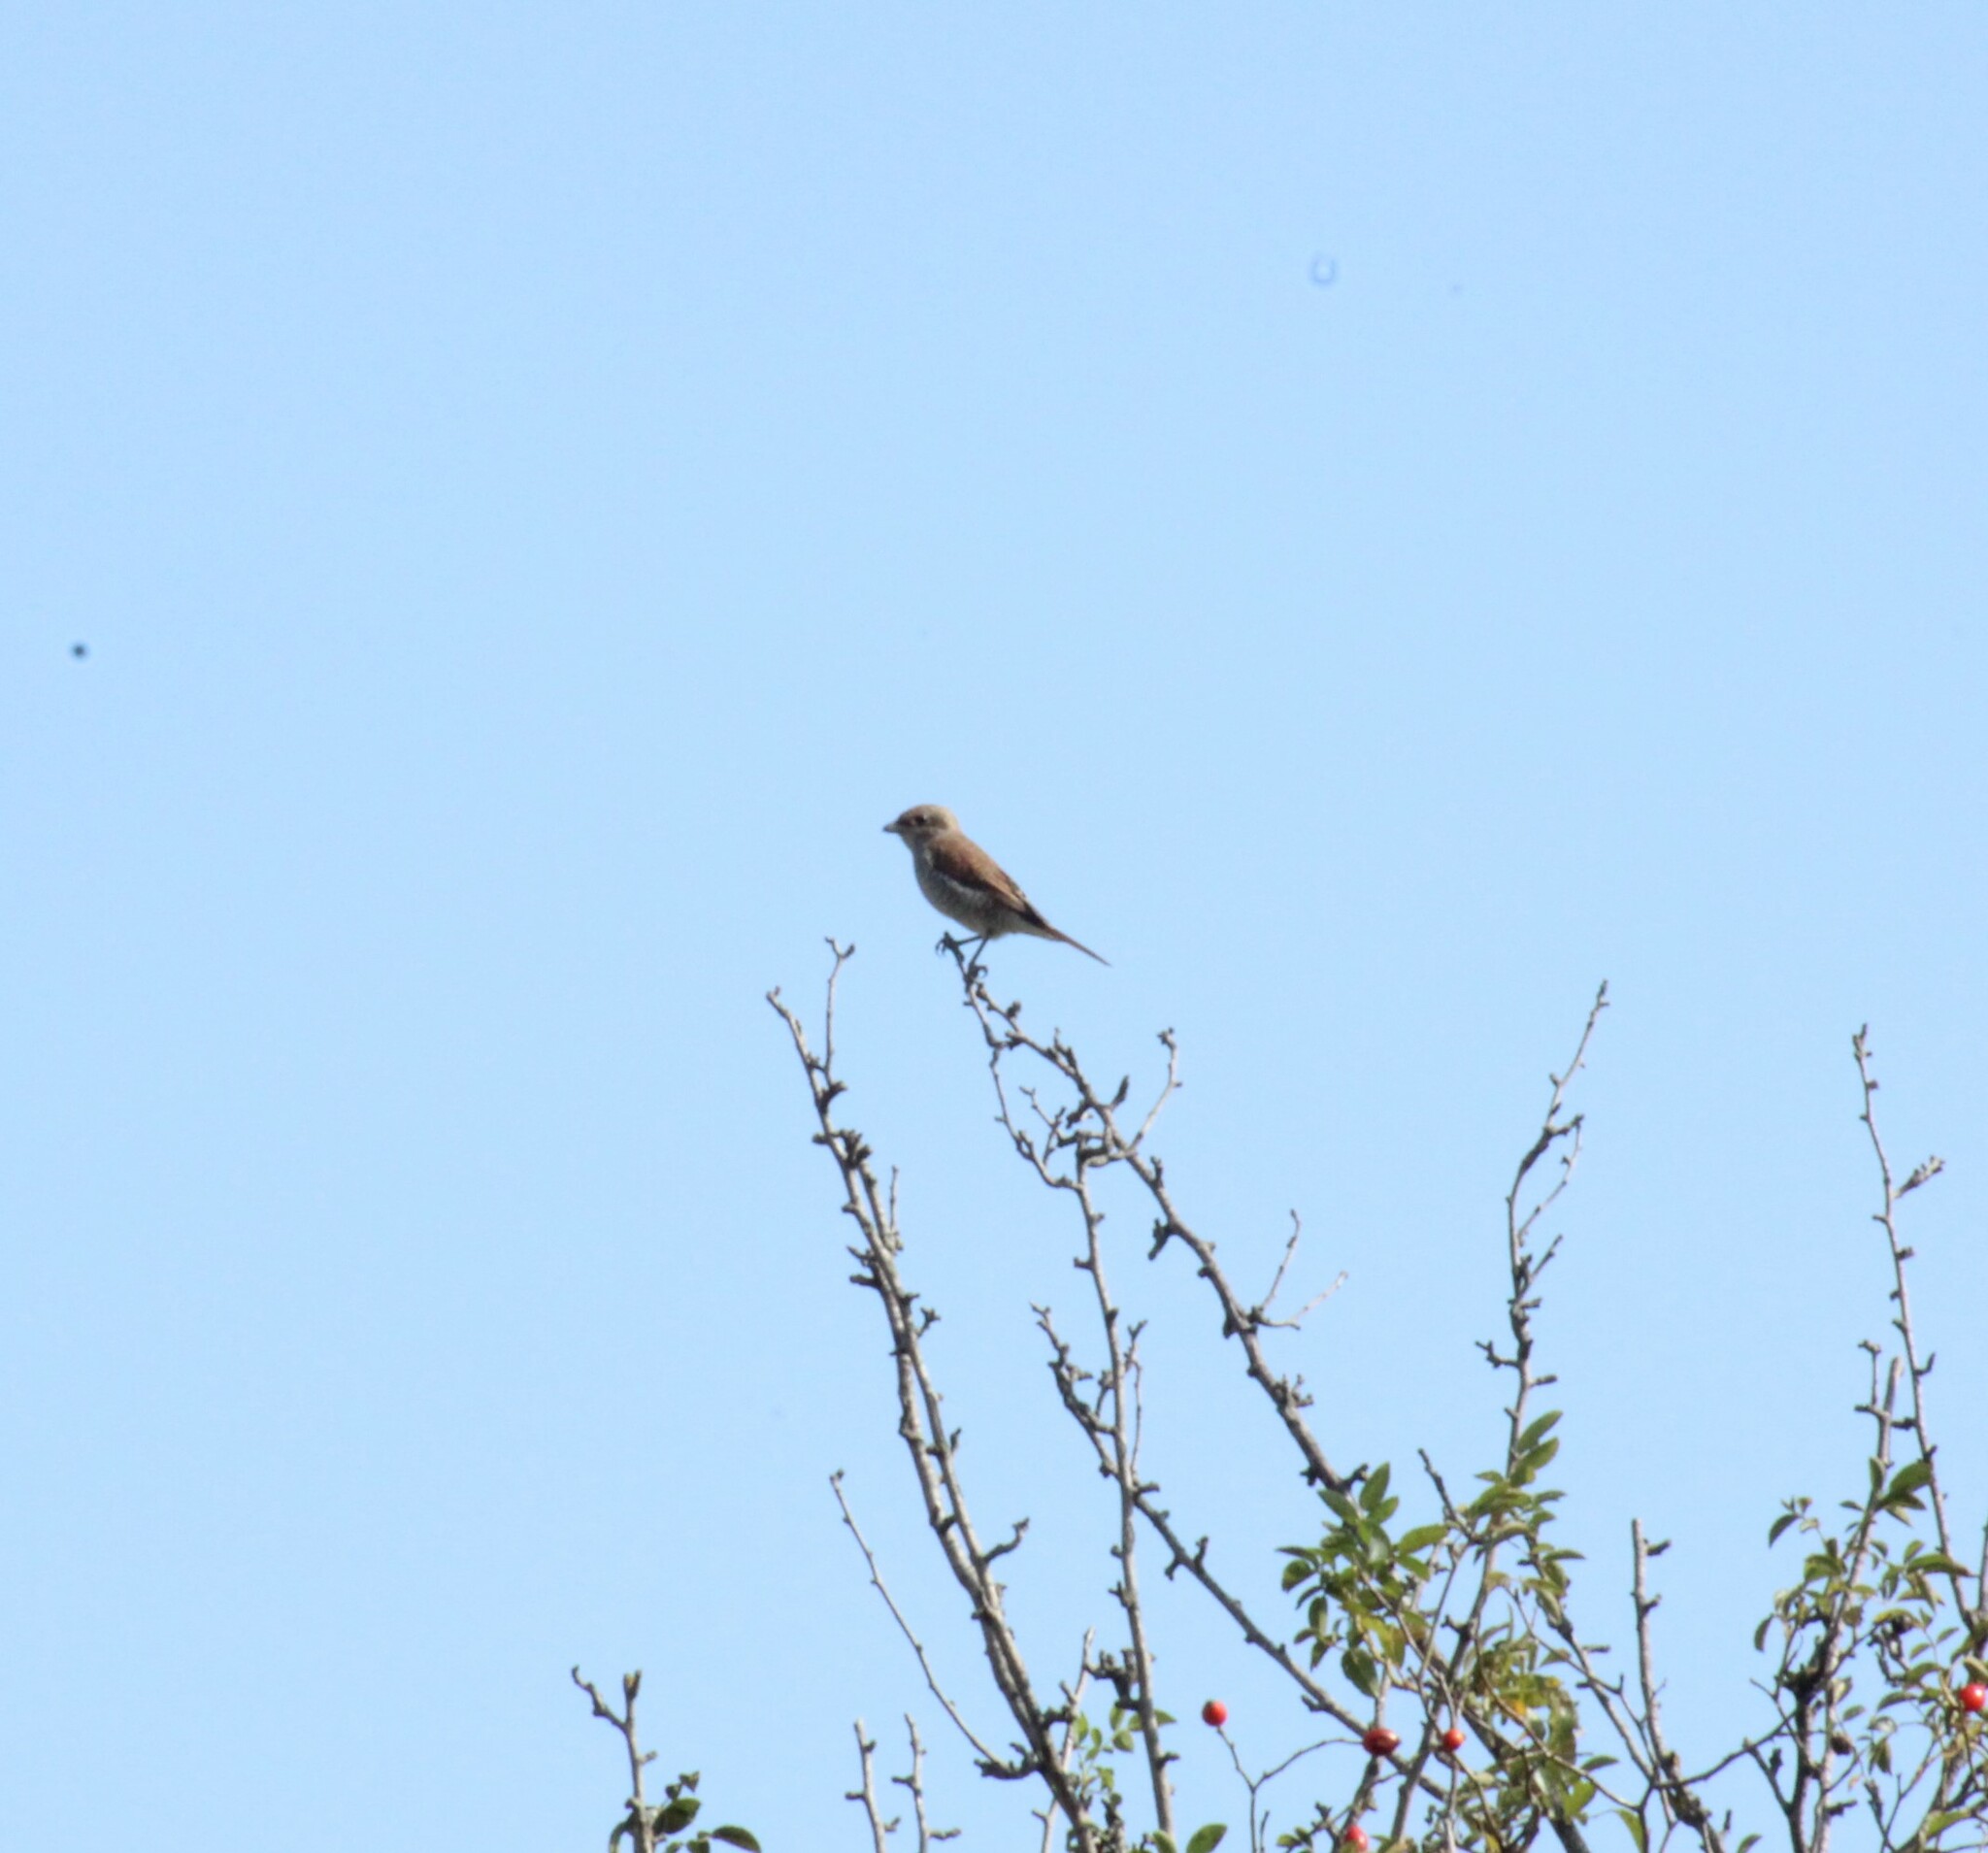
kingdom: Animalia
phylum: Chordata
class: Aves
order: Passeriformes
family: Laniidae
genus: Lanius
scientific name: Lanius collurio
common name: Red-backed shrike
